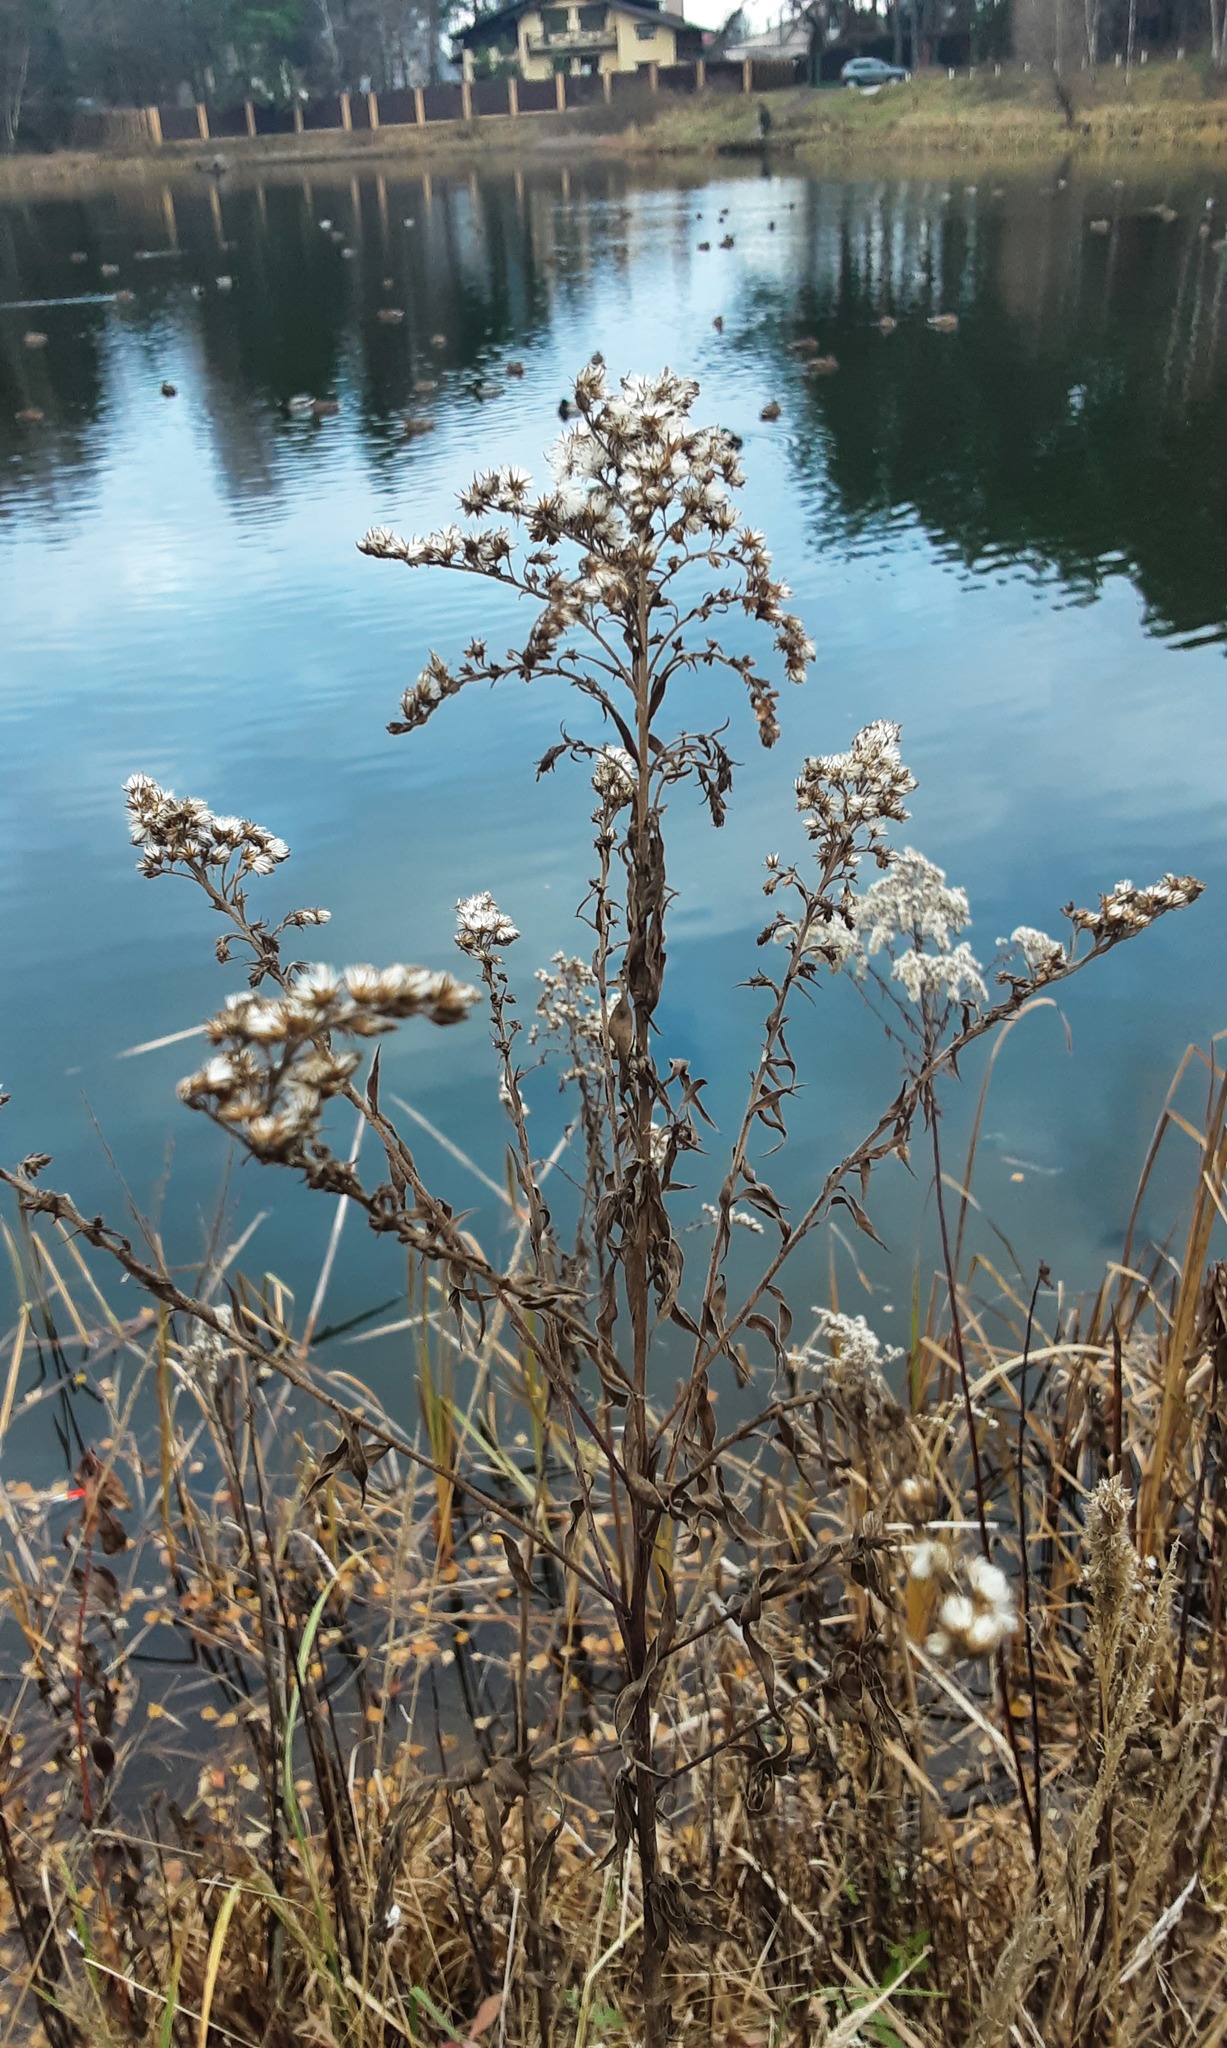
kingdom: Plantae
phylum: Tracheophyta
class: Magnoliopsida
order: Asterales
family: Asteraceae
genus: Solidago
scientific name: Solidago canadensis
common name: Canada goldenrod
